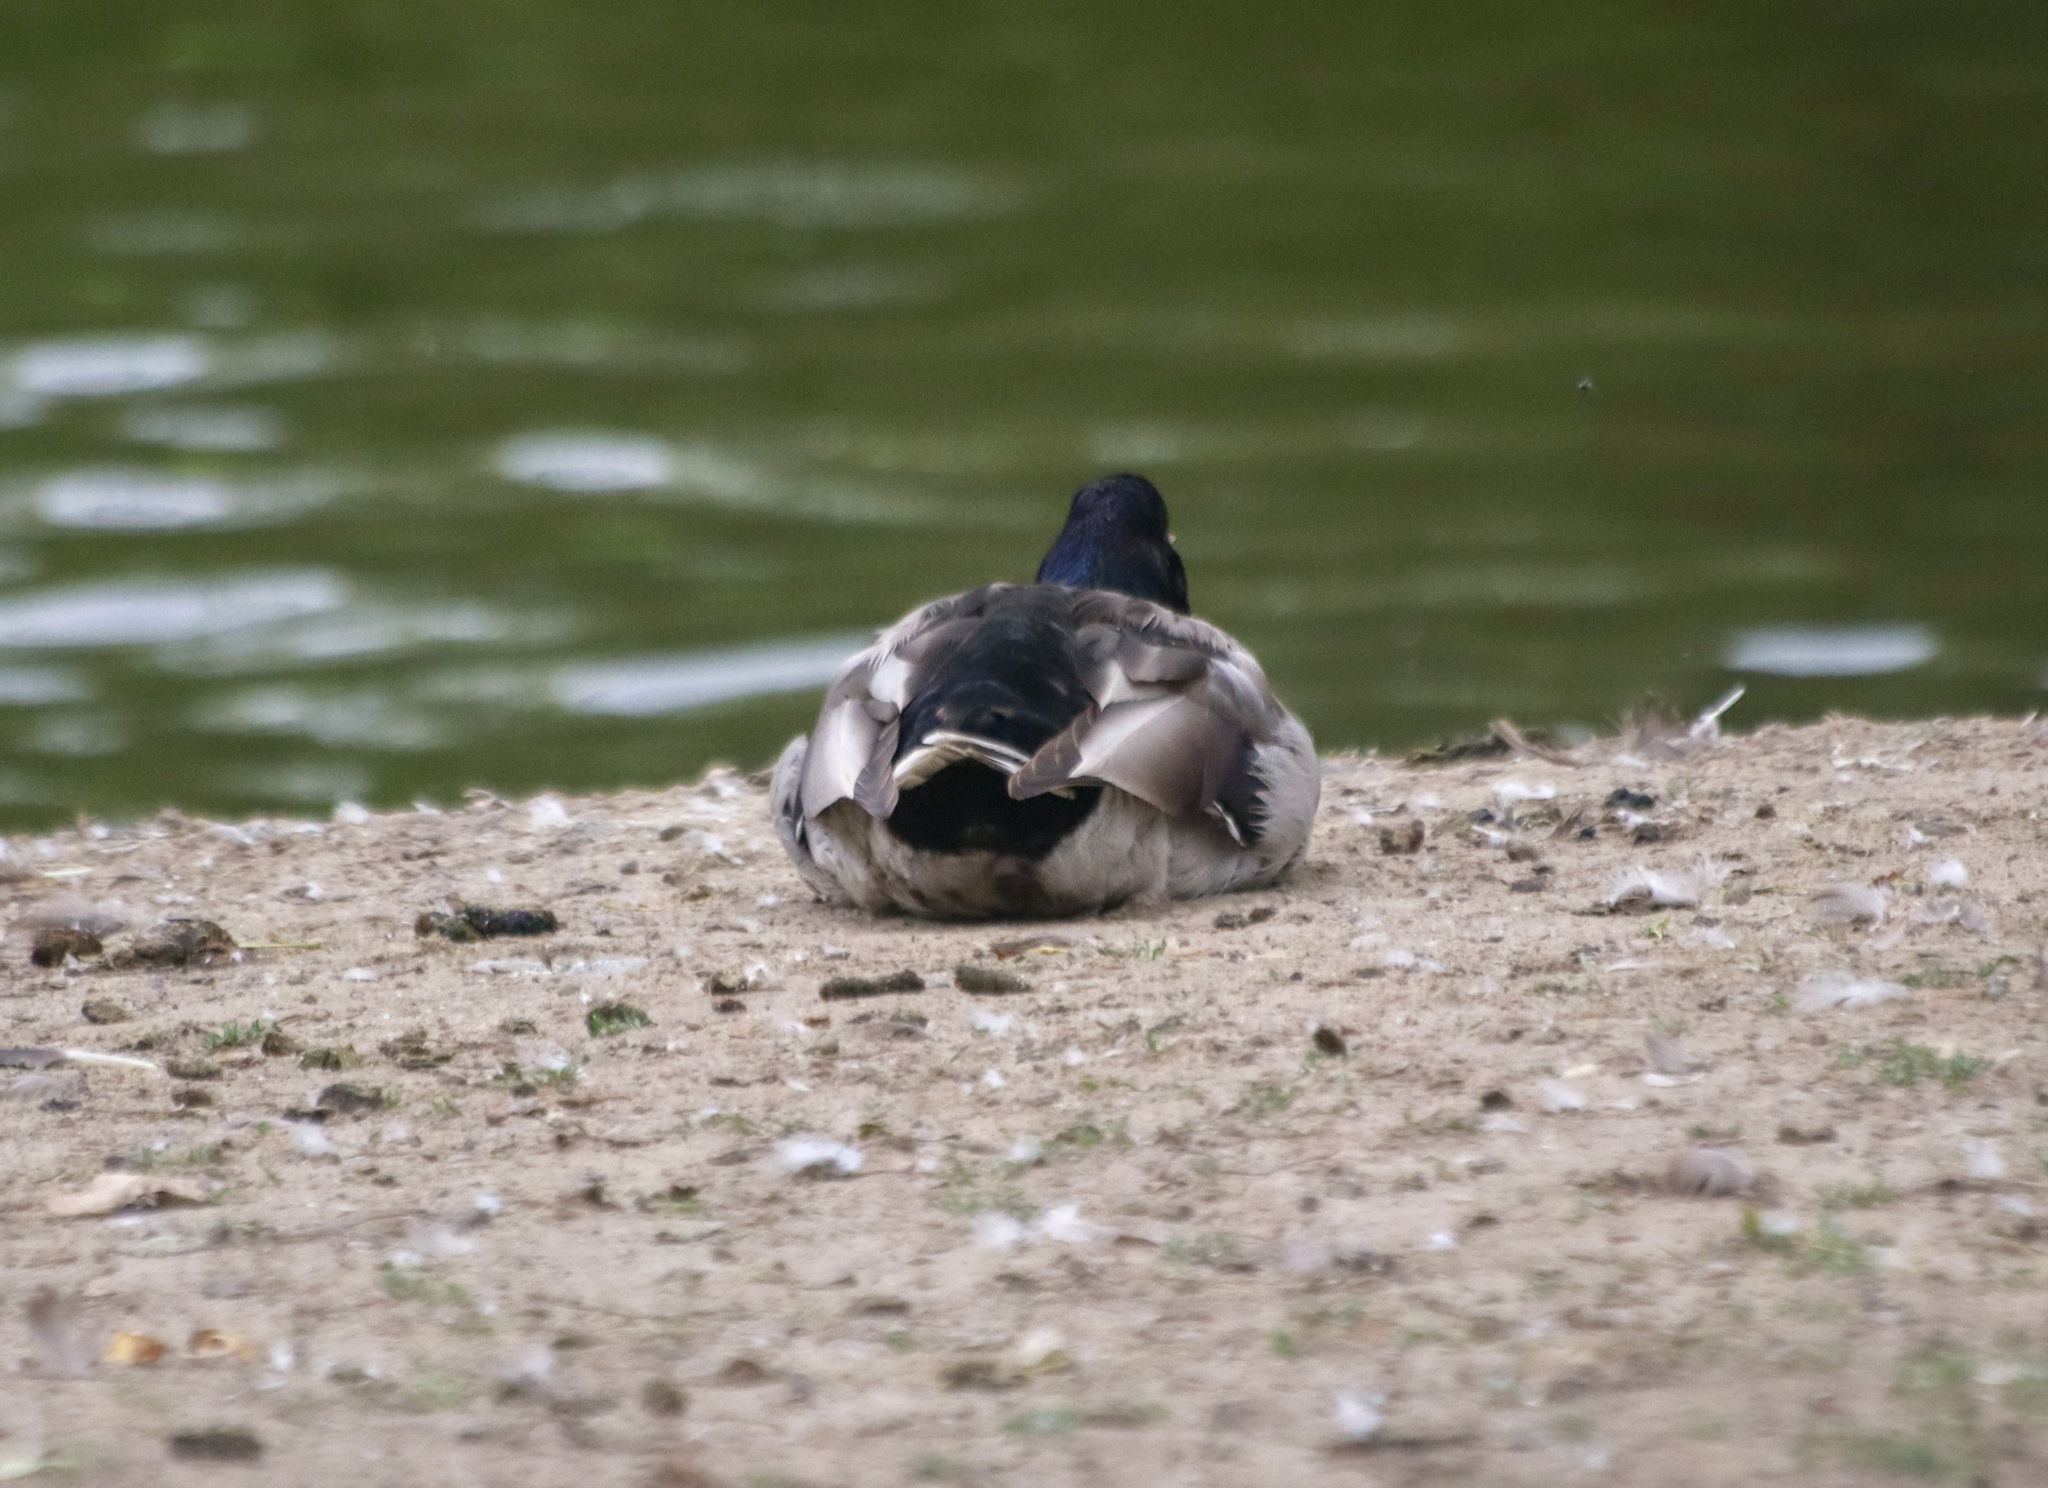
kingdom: Animalia
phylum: Chordata
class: Aves
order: Anseriformes
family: Anatidae
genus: Anas
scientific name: Anas platyrhynchos
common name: Mallard
